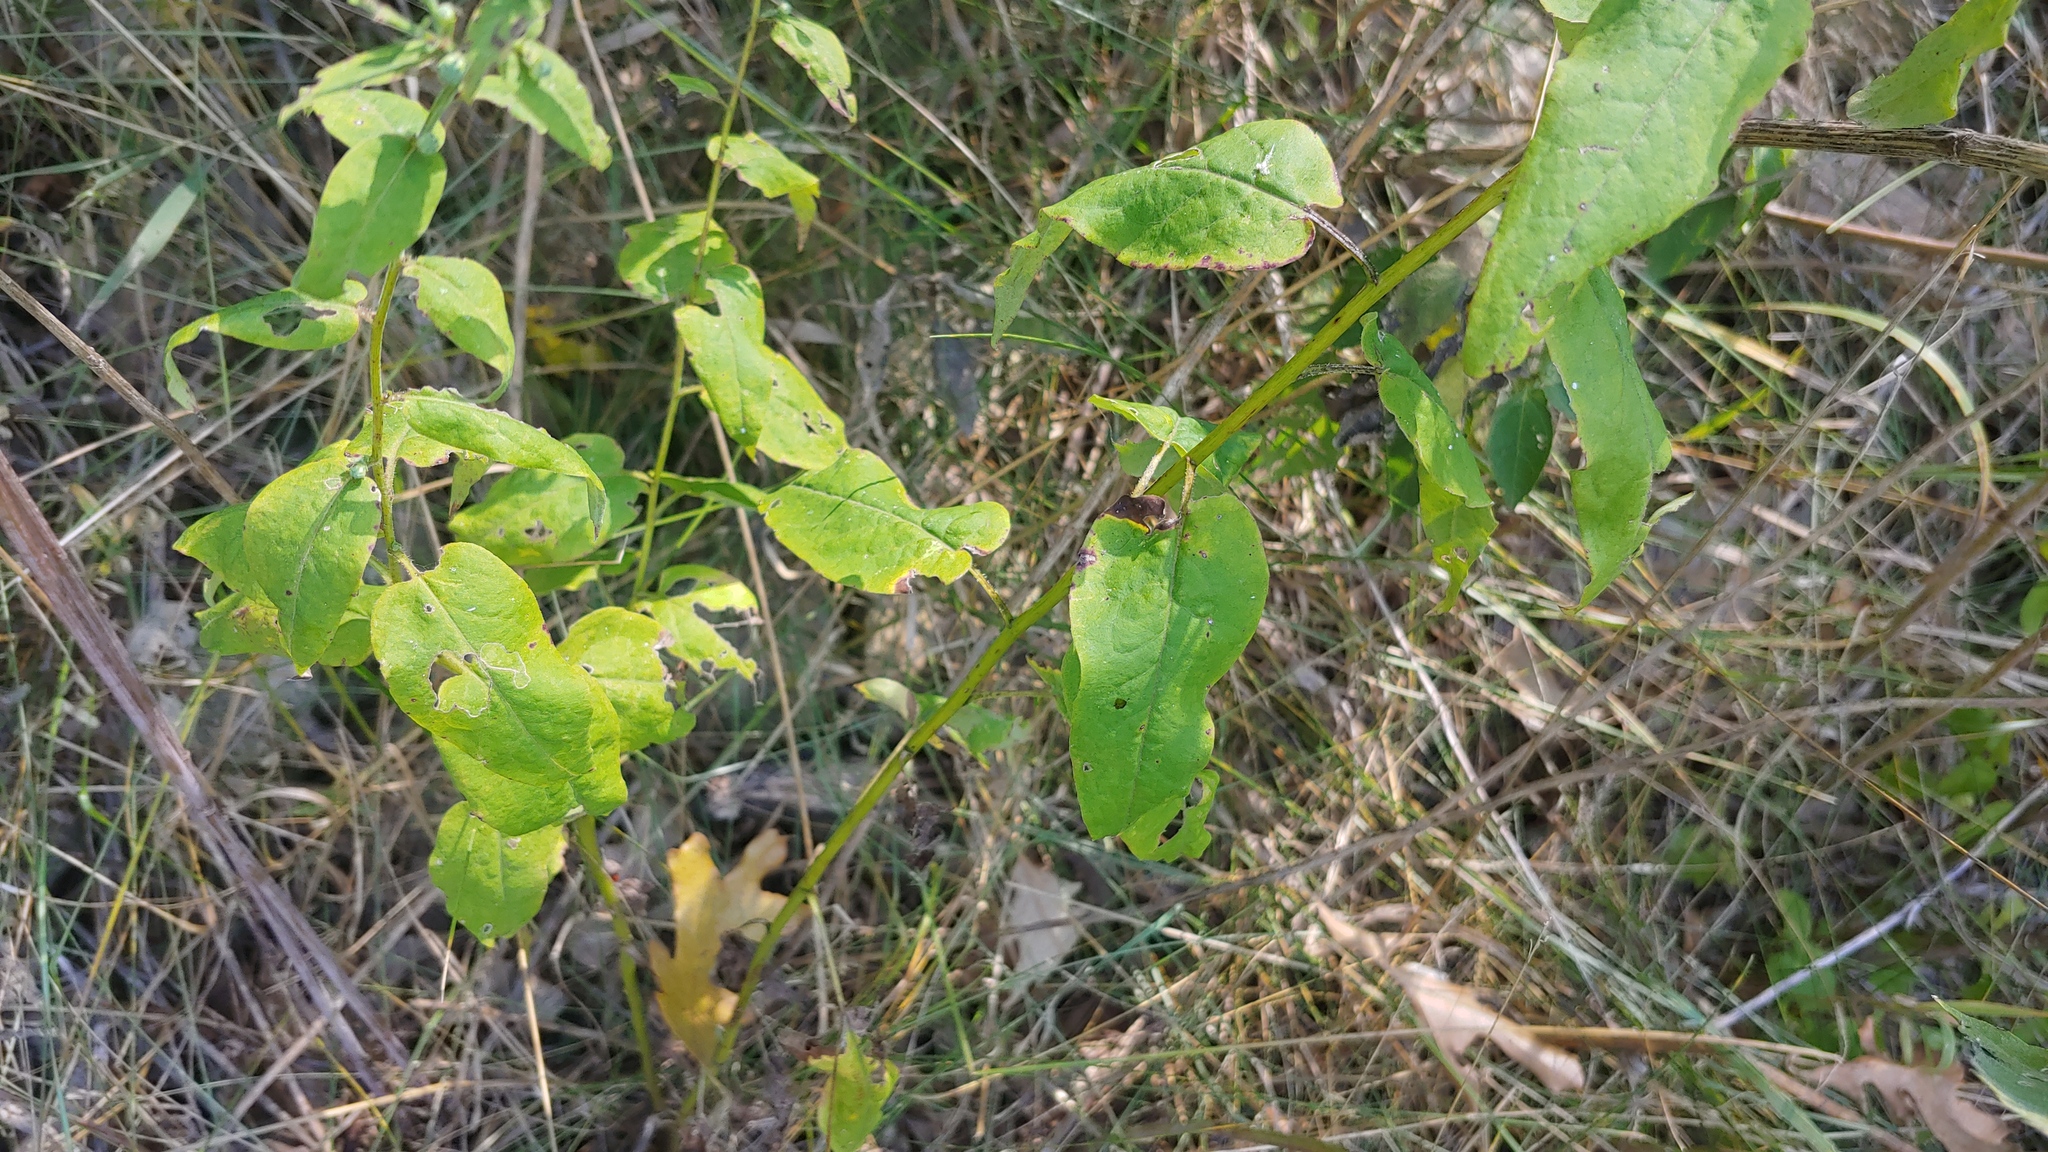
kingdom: Plantae
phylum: Tracheophyta
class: Magnoliopsida
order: Asterales
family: Asteraceae
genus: Symphyotrichum
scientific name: Symphyotrichum shortii
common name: Short's aster
